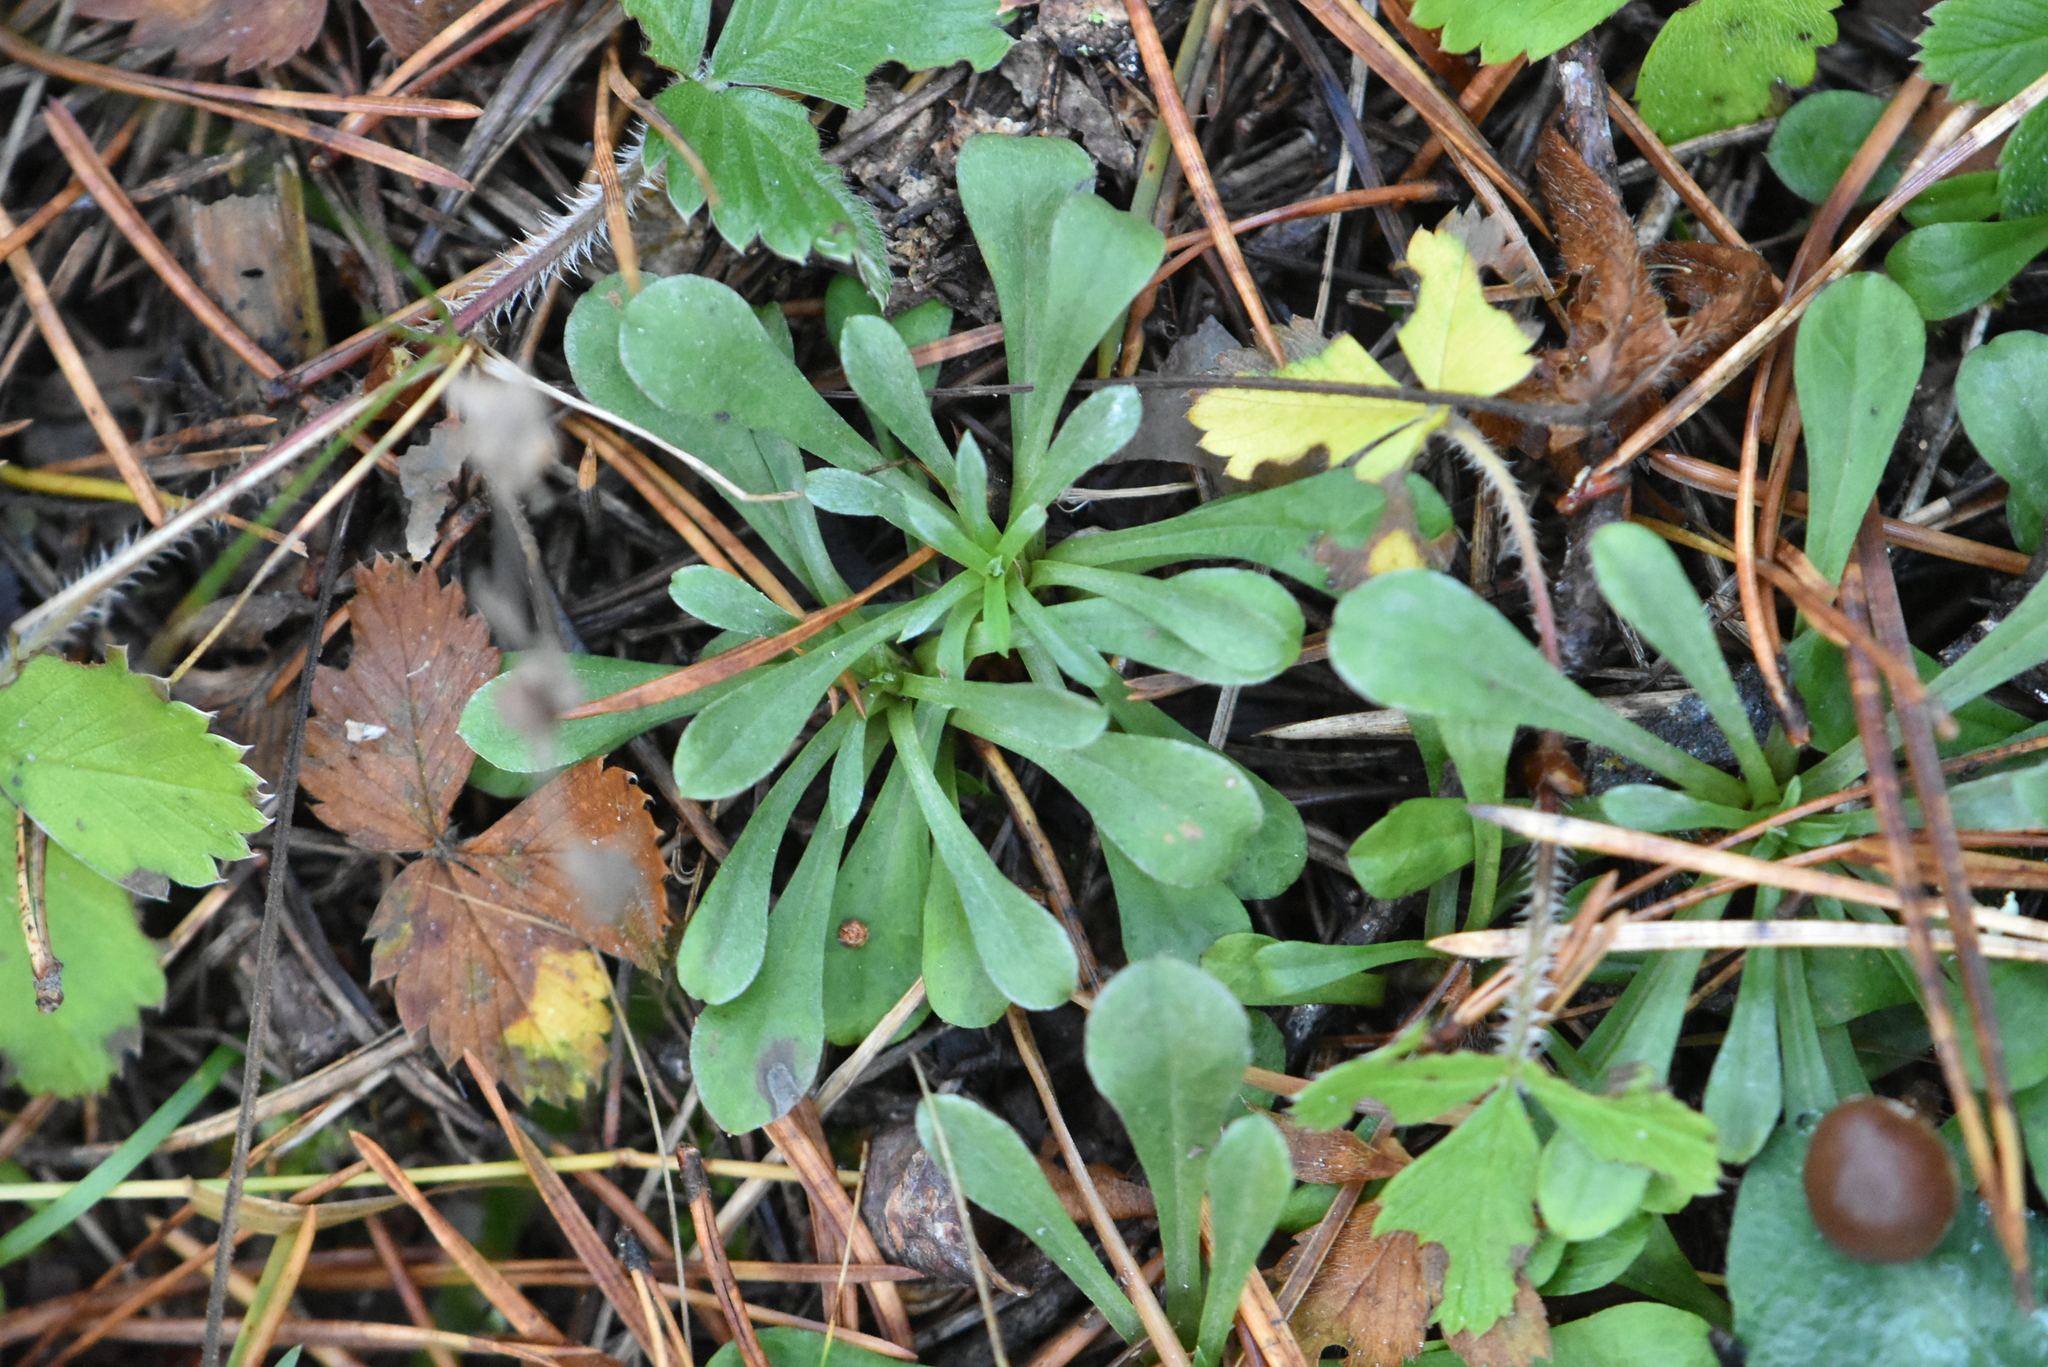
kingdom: Plantae
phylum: Tracheophyta
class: Magnoliopsida
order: Asterales
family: Asteraceae
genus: Antennaria
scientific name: Antennaria dioica
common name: Mountain everlasting
